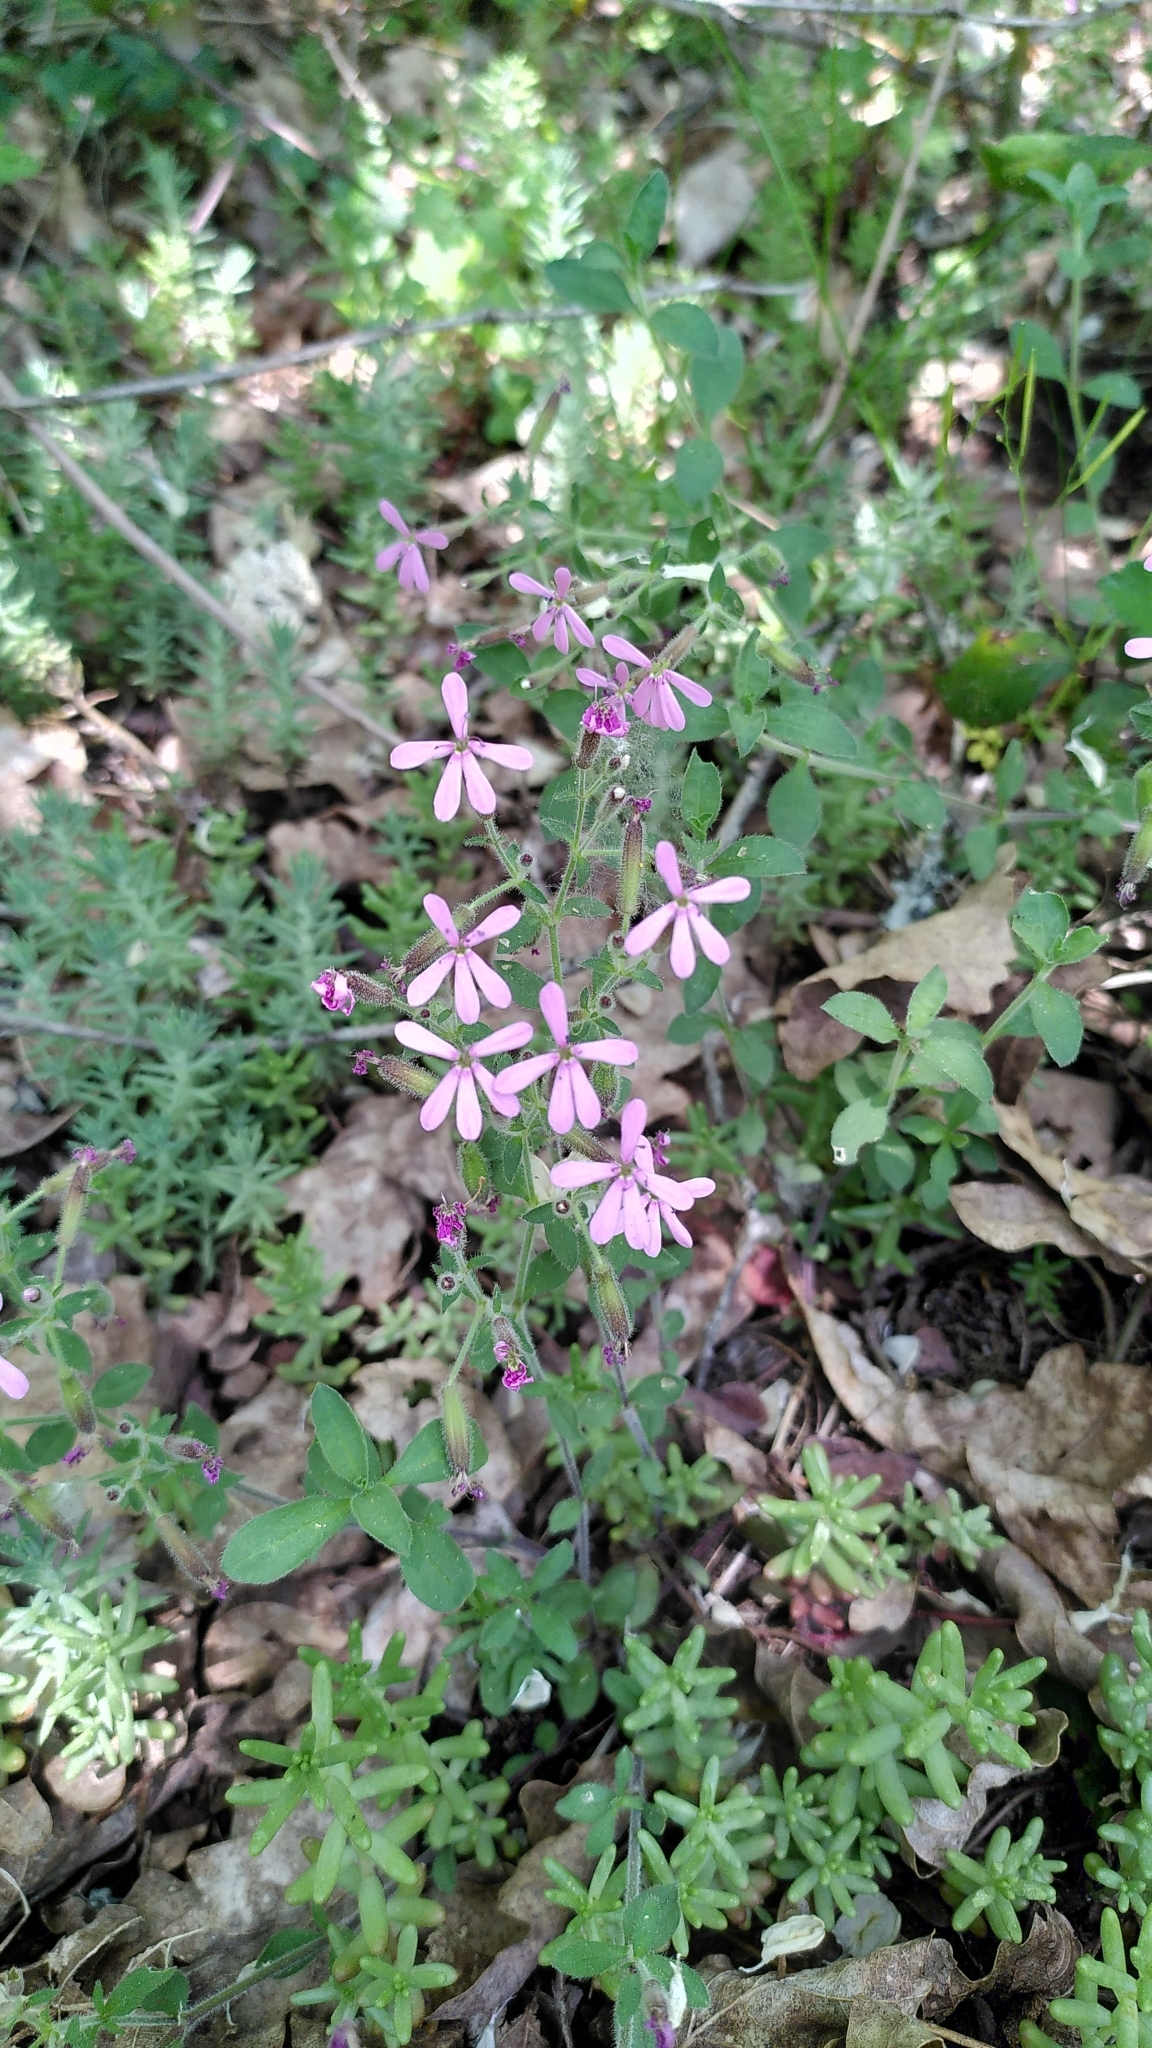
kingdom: Plantae
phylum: Tracheophyta
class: Magnoliopsida
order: Caryophyllales
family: Caryophyllaceae
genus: Saponaria
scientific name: Saponaria ocymoides
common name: Rock soapwort
